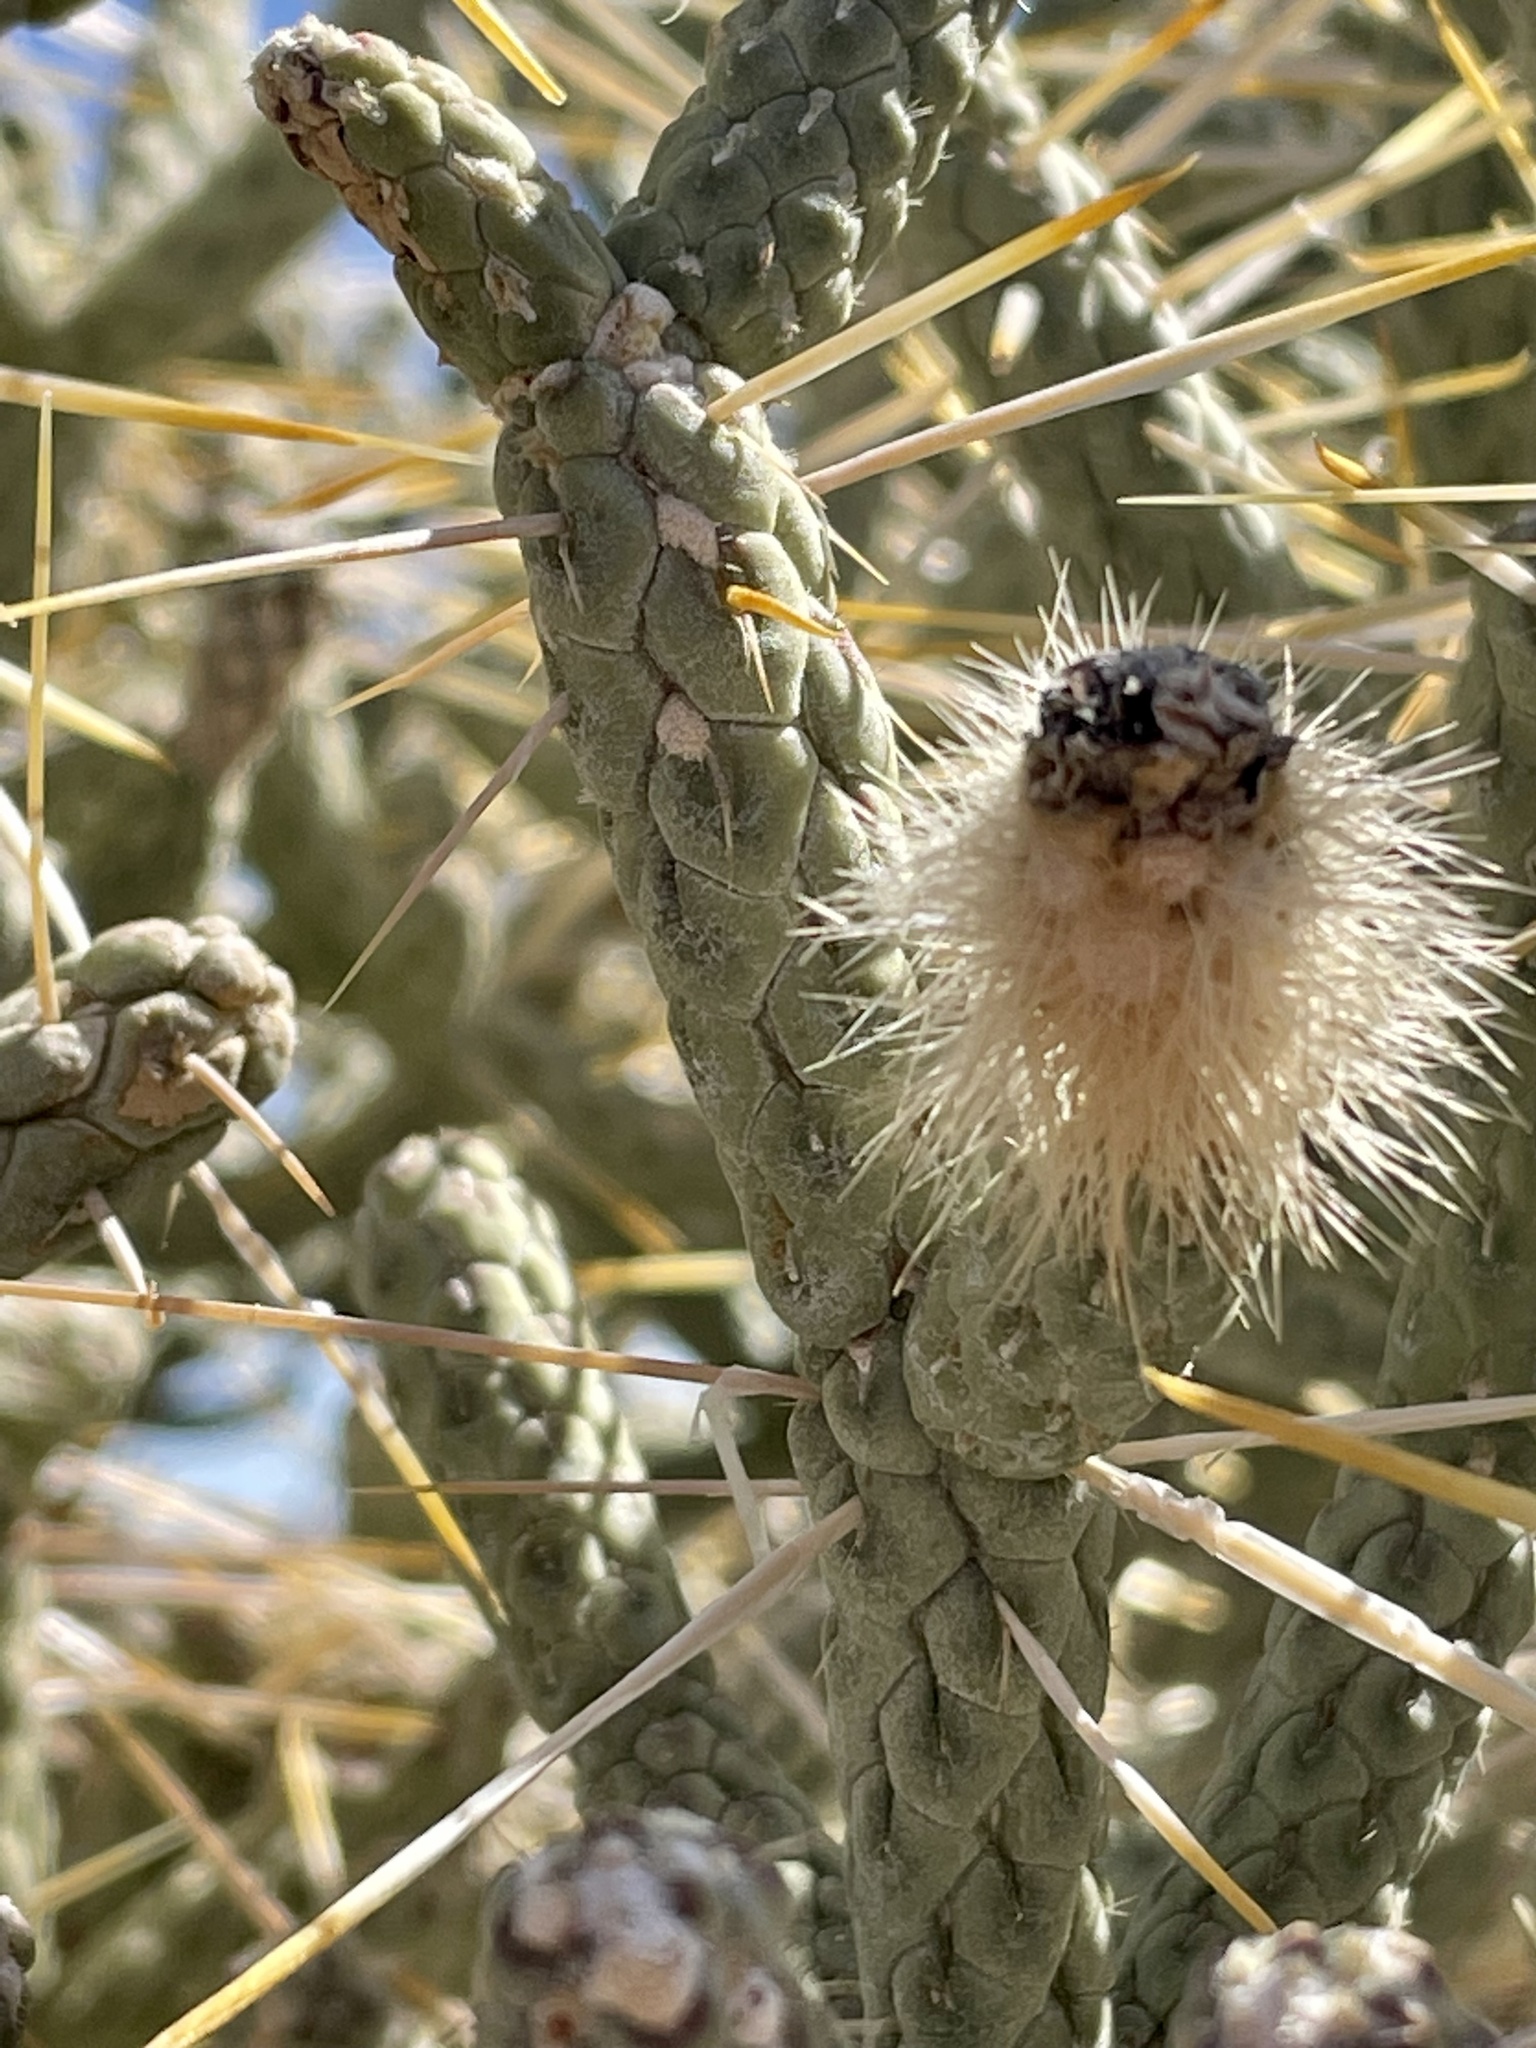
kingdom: Plantae
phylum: Tracheophyta
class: Magnoliopsida
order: Caryophyllales
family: Cactaceae
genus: Cylindropuntia
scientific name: Cylindropuntia ramosissima
